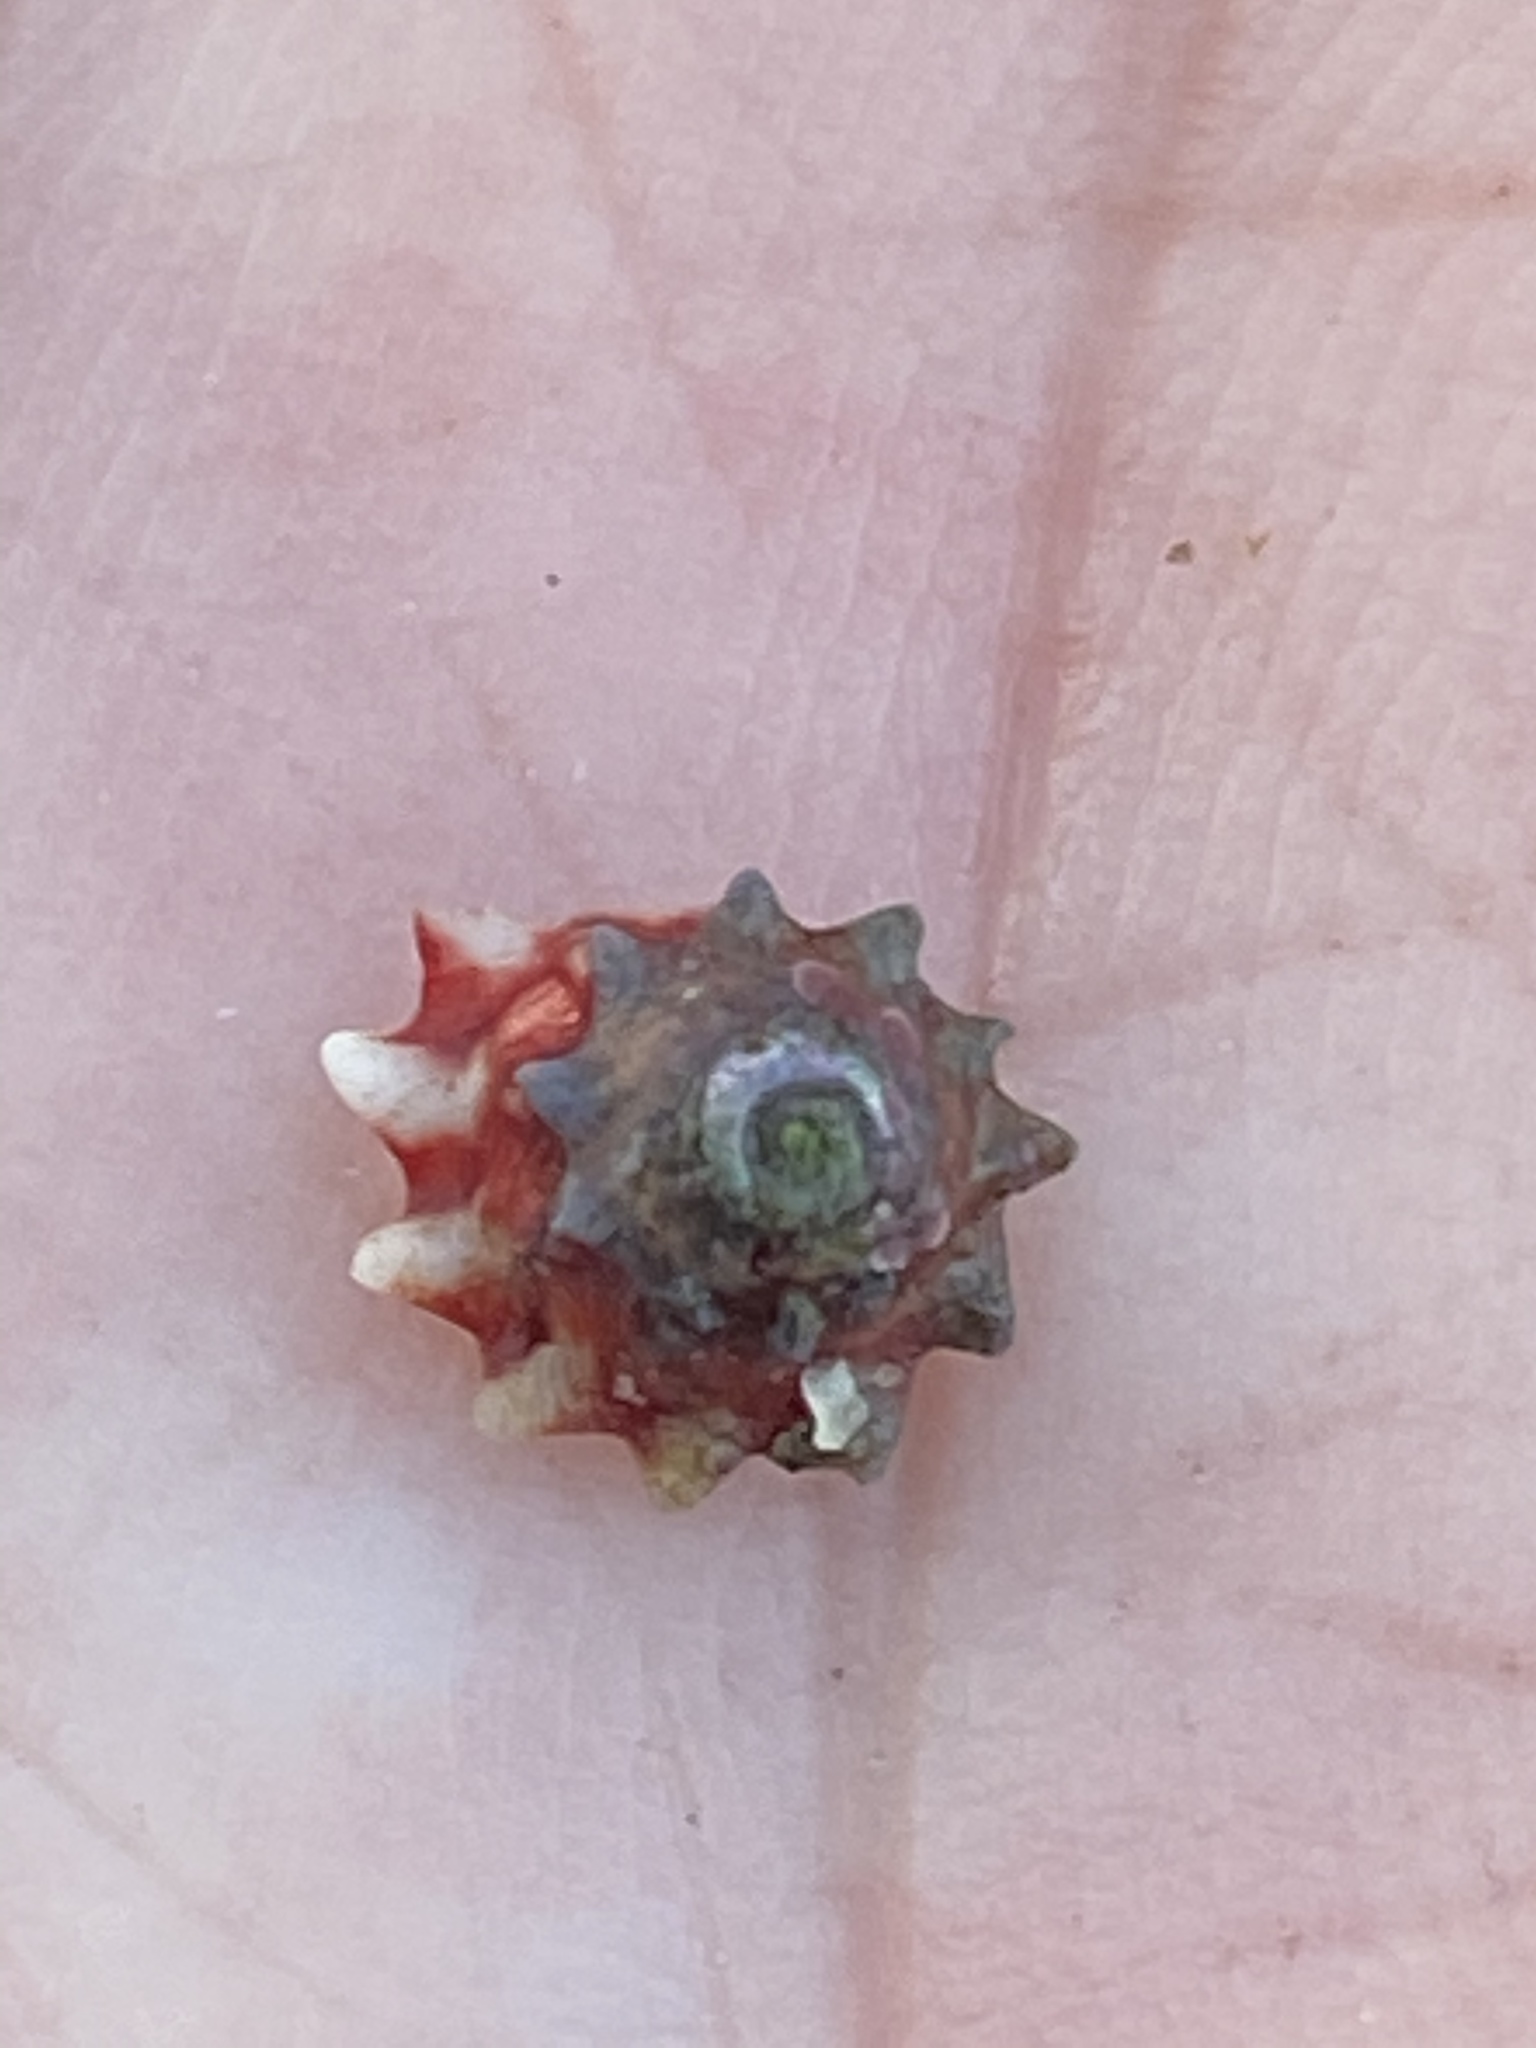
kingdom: Animalia
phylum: Mollusca
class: Gastropoda
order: Trochida
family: Turbinidae
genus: Pomaulax
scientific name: Pomaulax gibberosus
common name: Red turban
